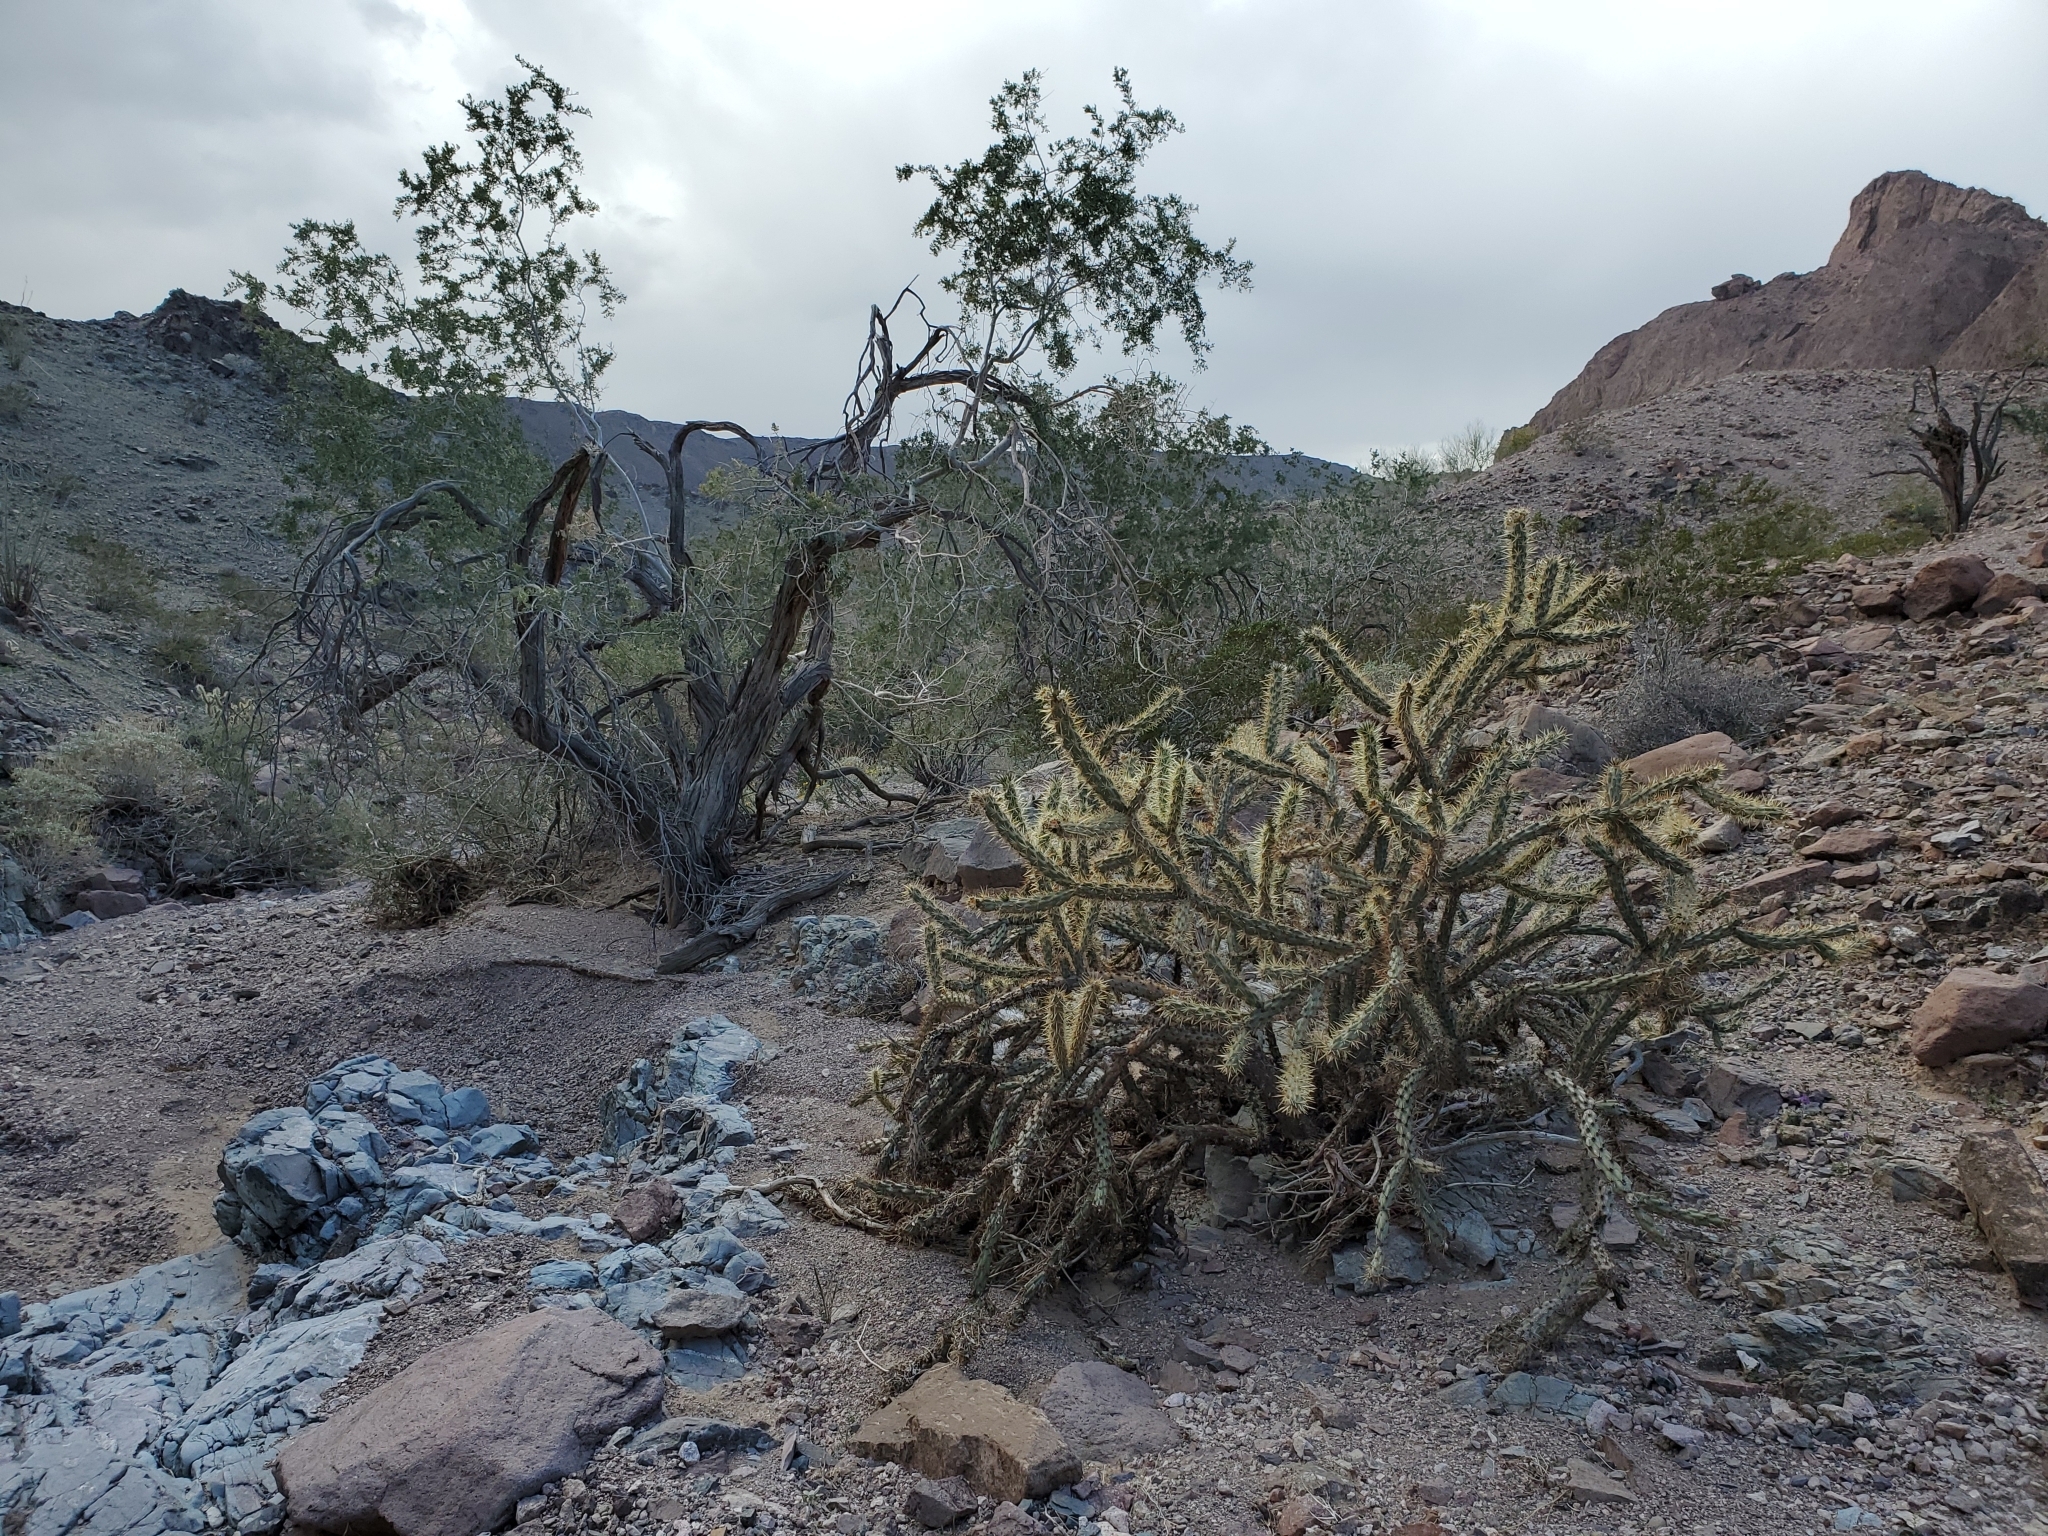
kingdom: Plantae
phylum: Tracheophyta
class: Magnoliopsida
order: Caryophyllales
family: Cactaceae
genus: Cylindropuntia
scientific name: Cylindropuntia acanthocarpa
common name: Buckhorn cholla
